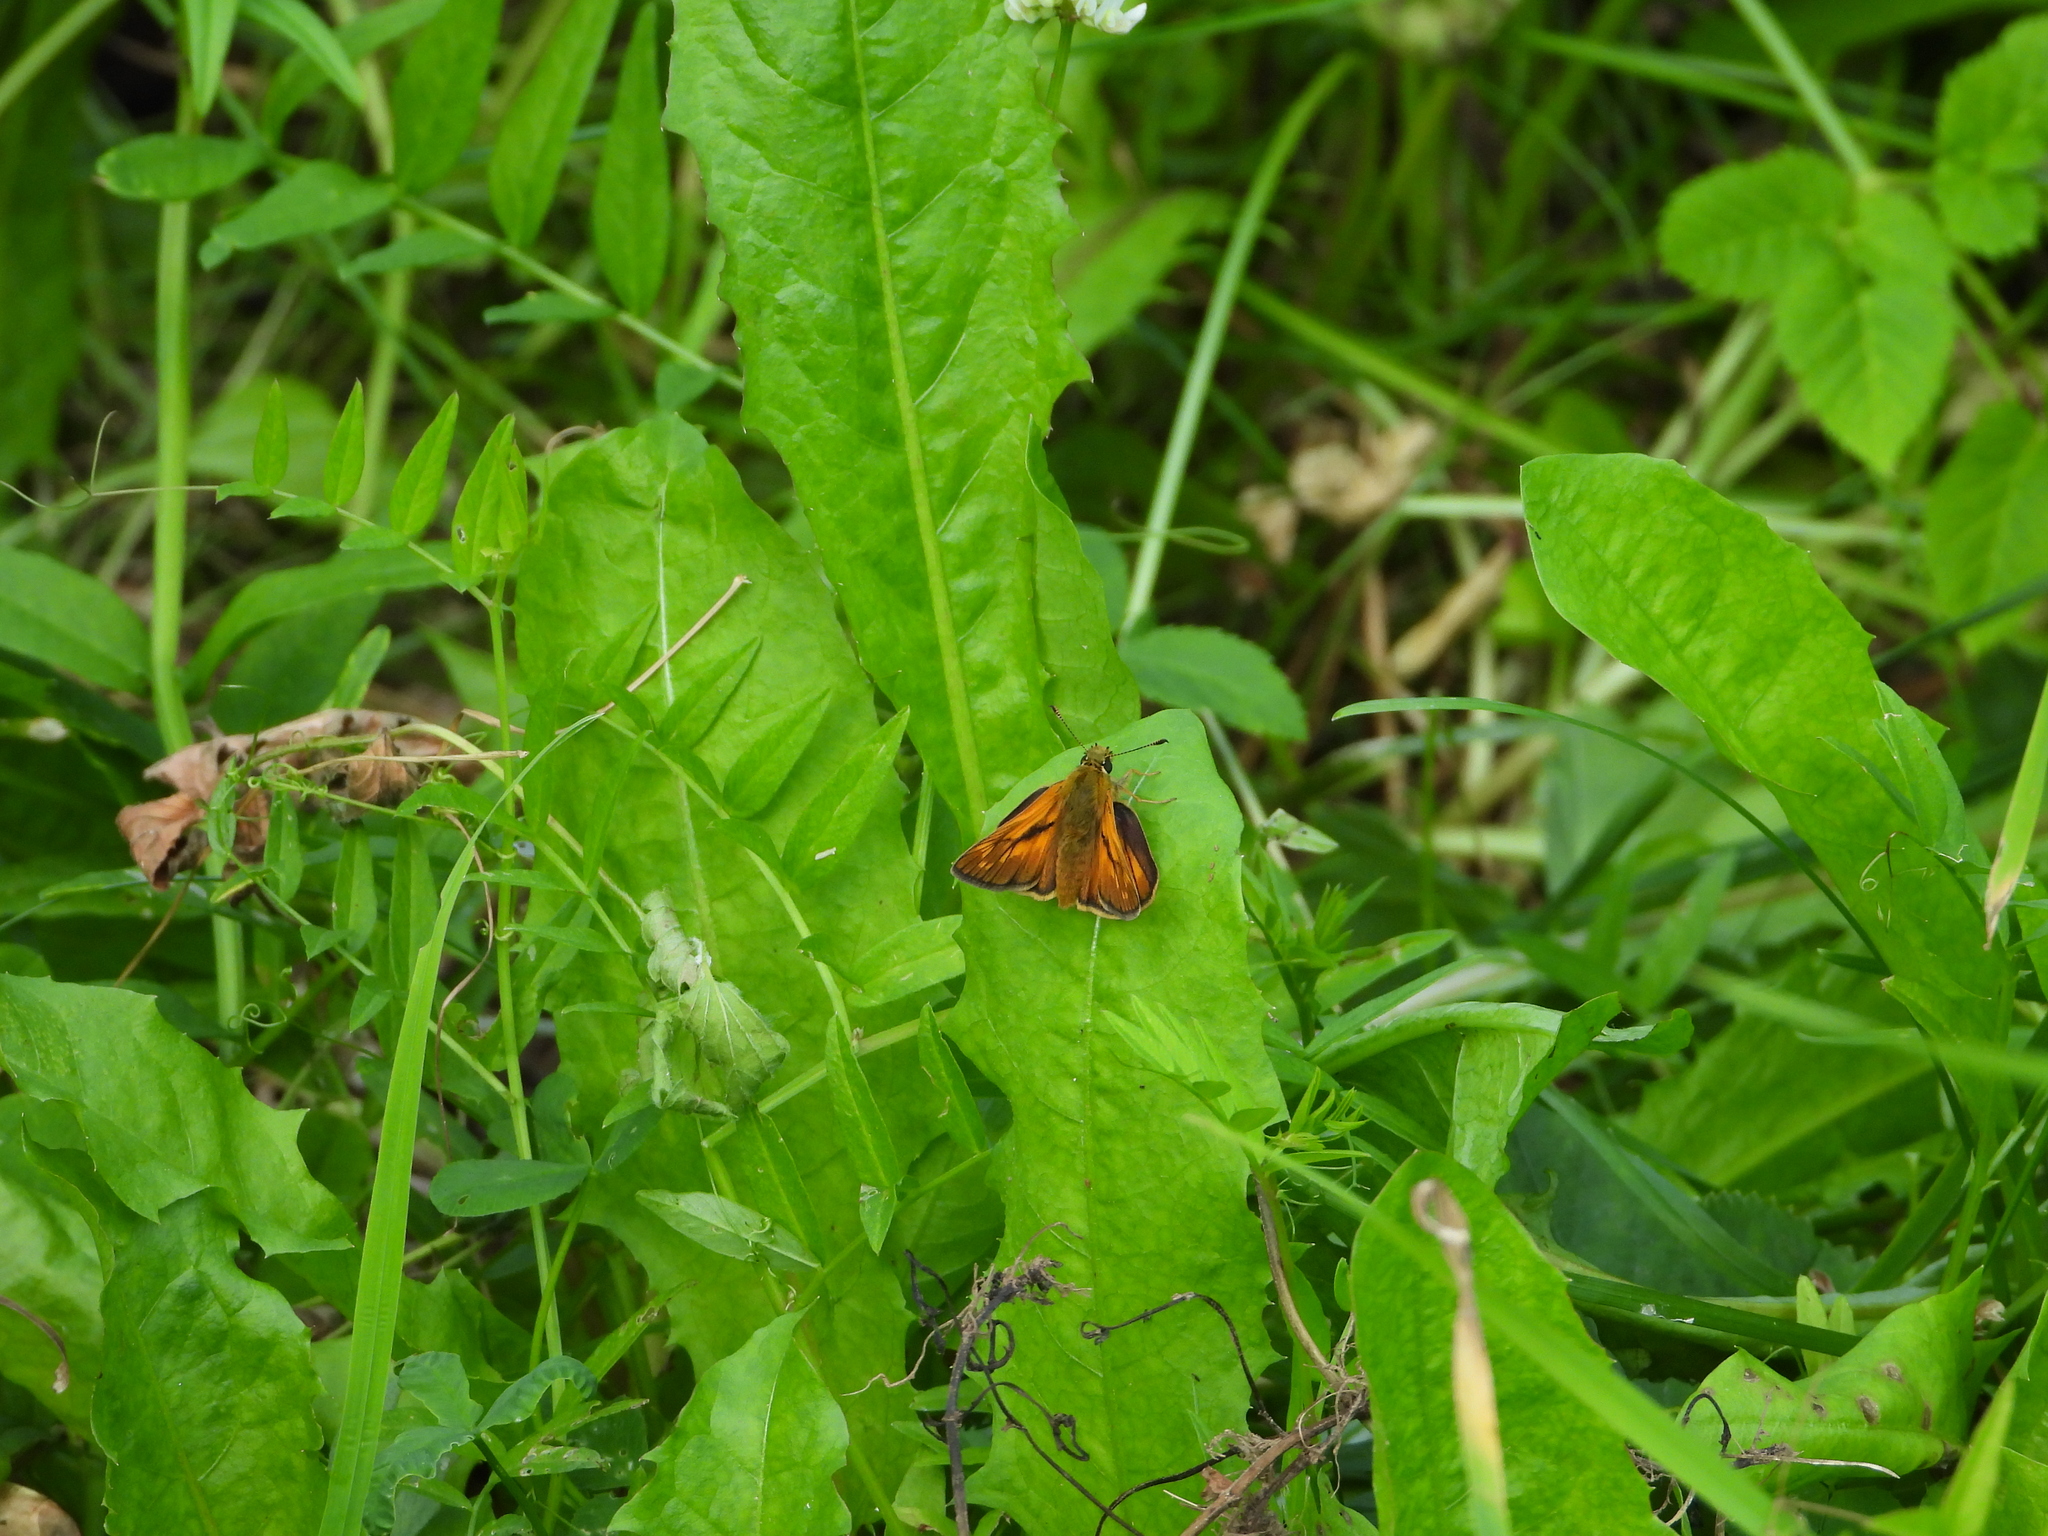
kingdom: Animalia
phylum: Arthropoda
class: Insecta
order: Lepidoptera
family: Hesperiidae
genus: Ochlodes
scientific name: Ochlodes venata
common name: Large skipper
